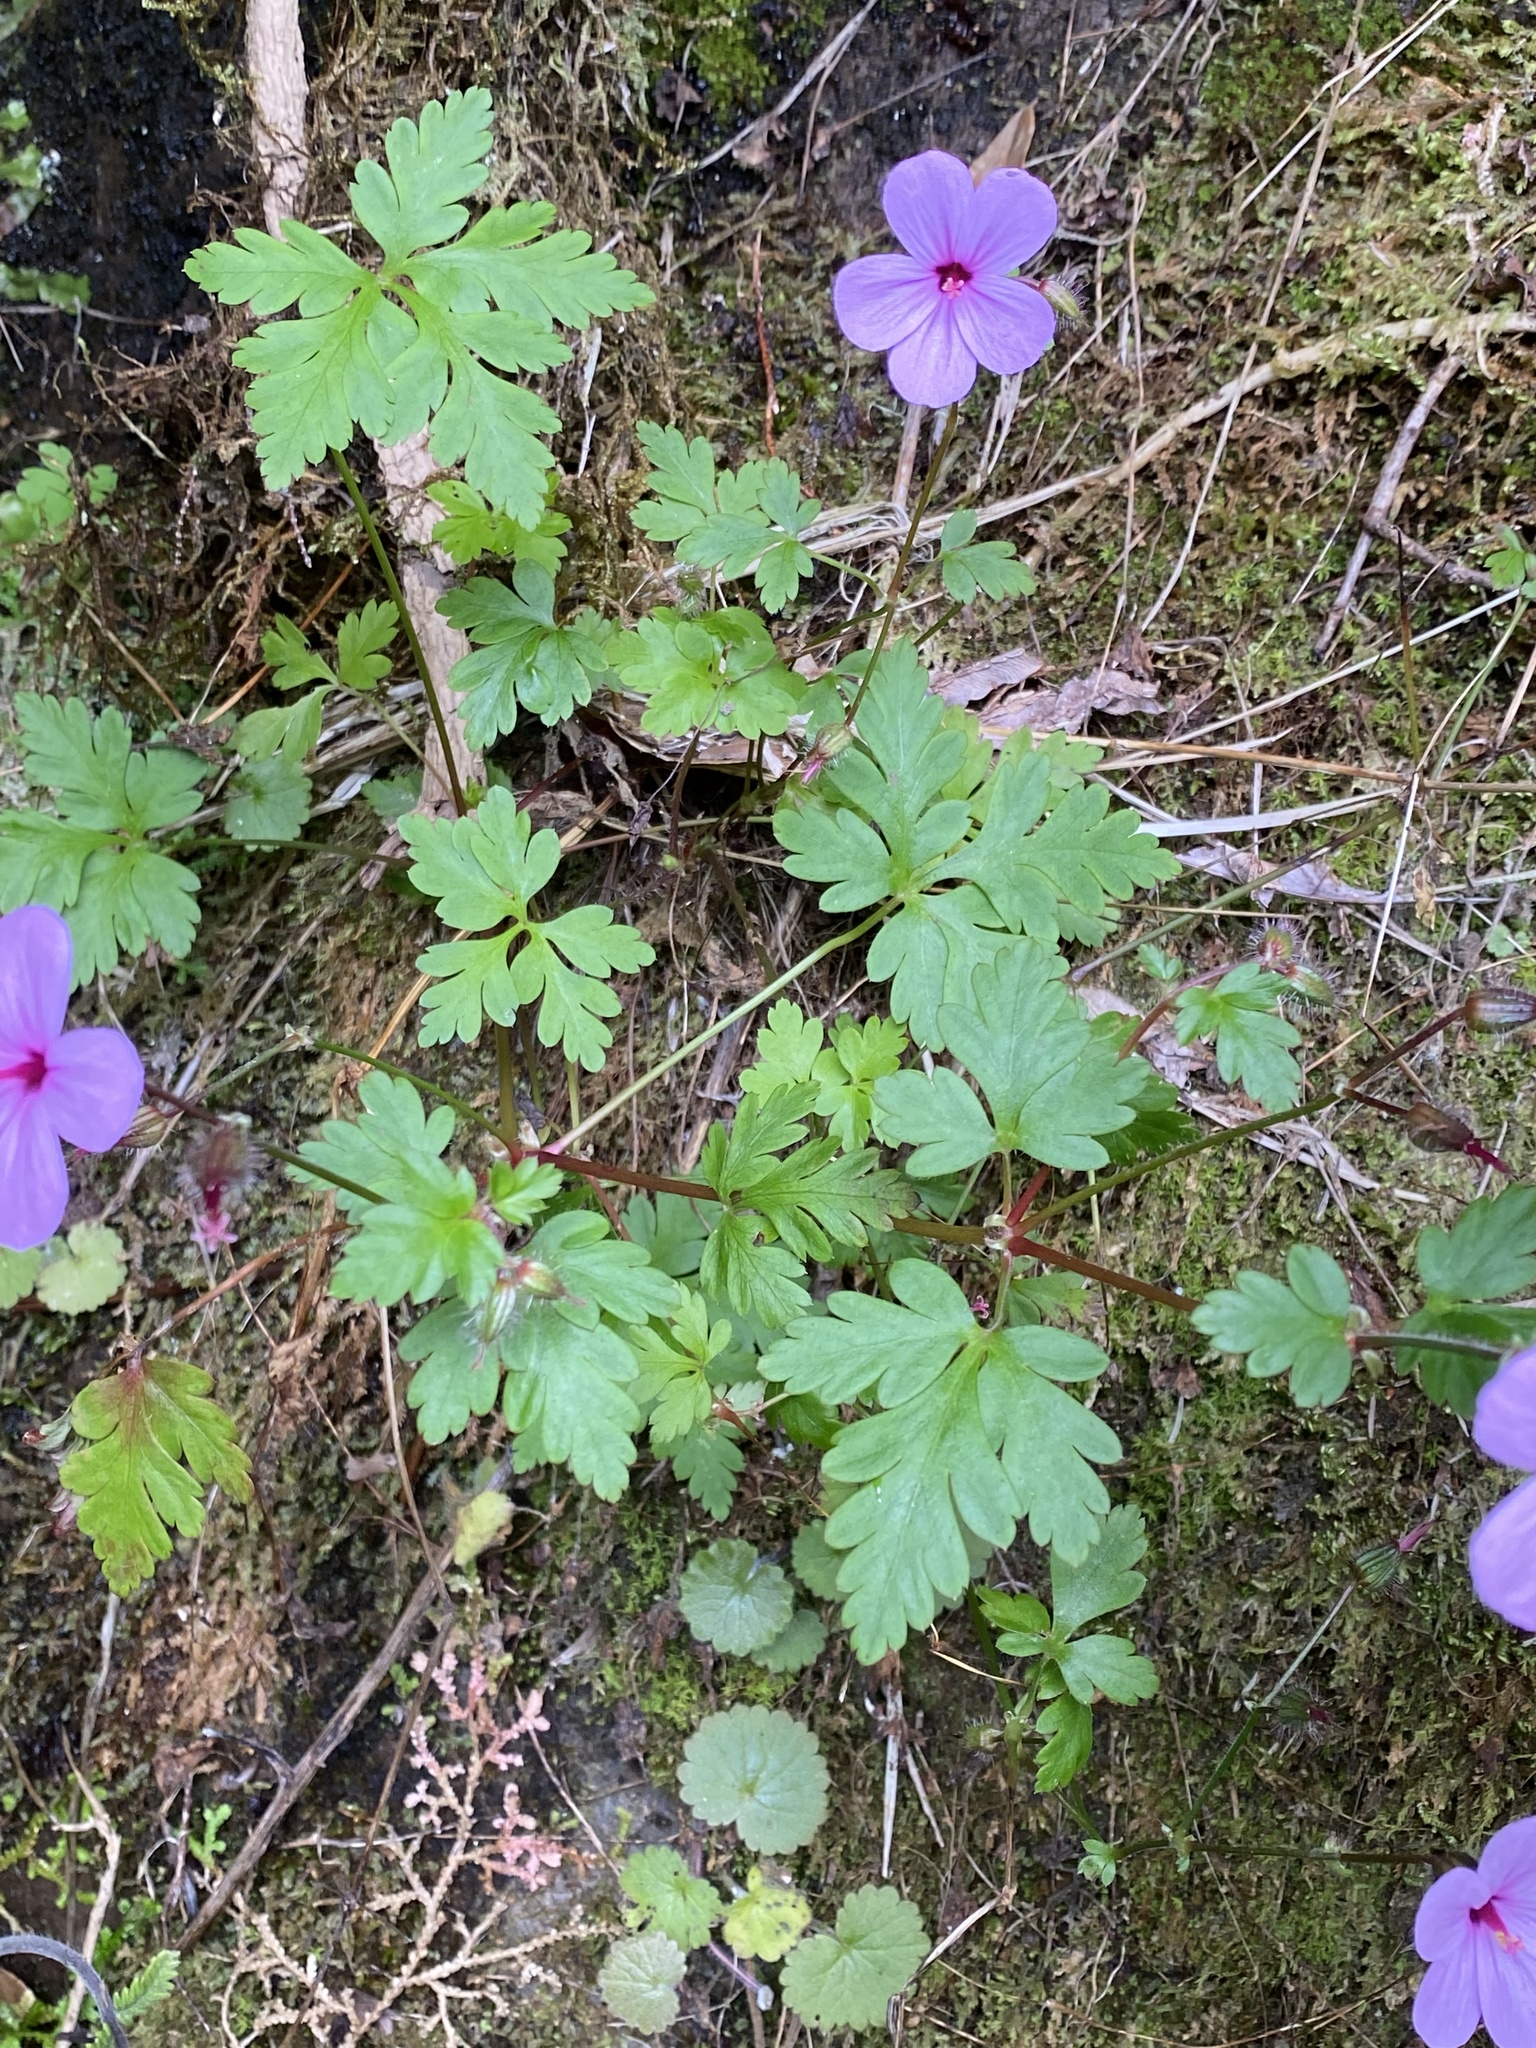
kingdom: Plantae
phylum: Tracheophyta
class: Magnoliopsida
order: Geraniales
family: Geraniaceae
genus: Geranium
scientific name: Geranium yeoi
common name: Greater herb robert
